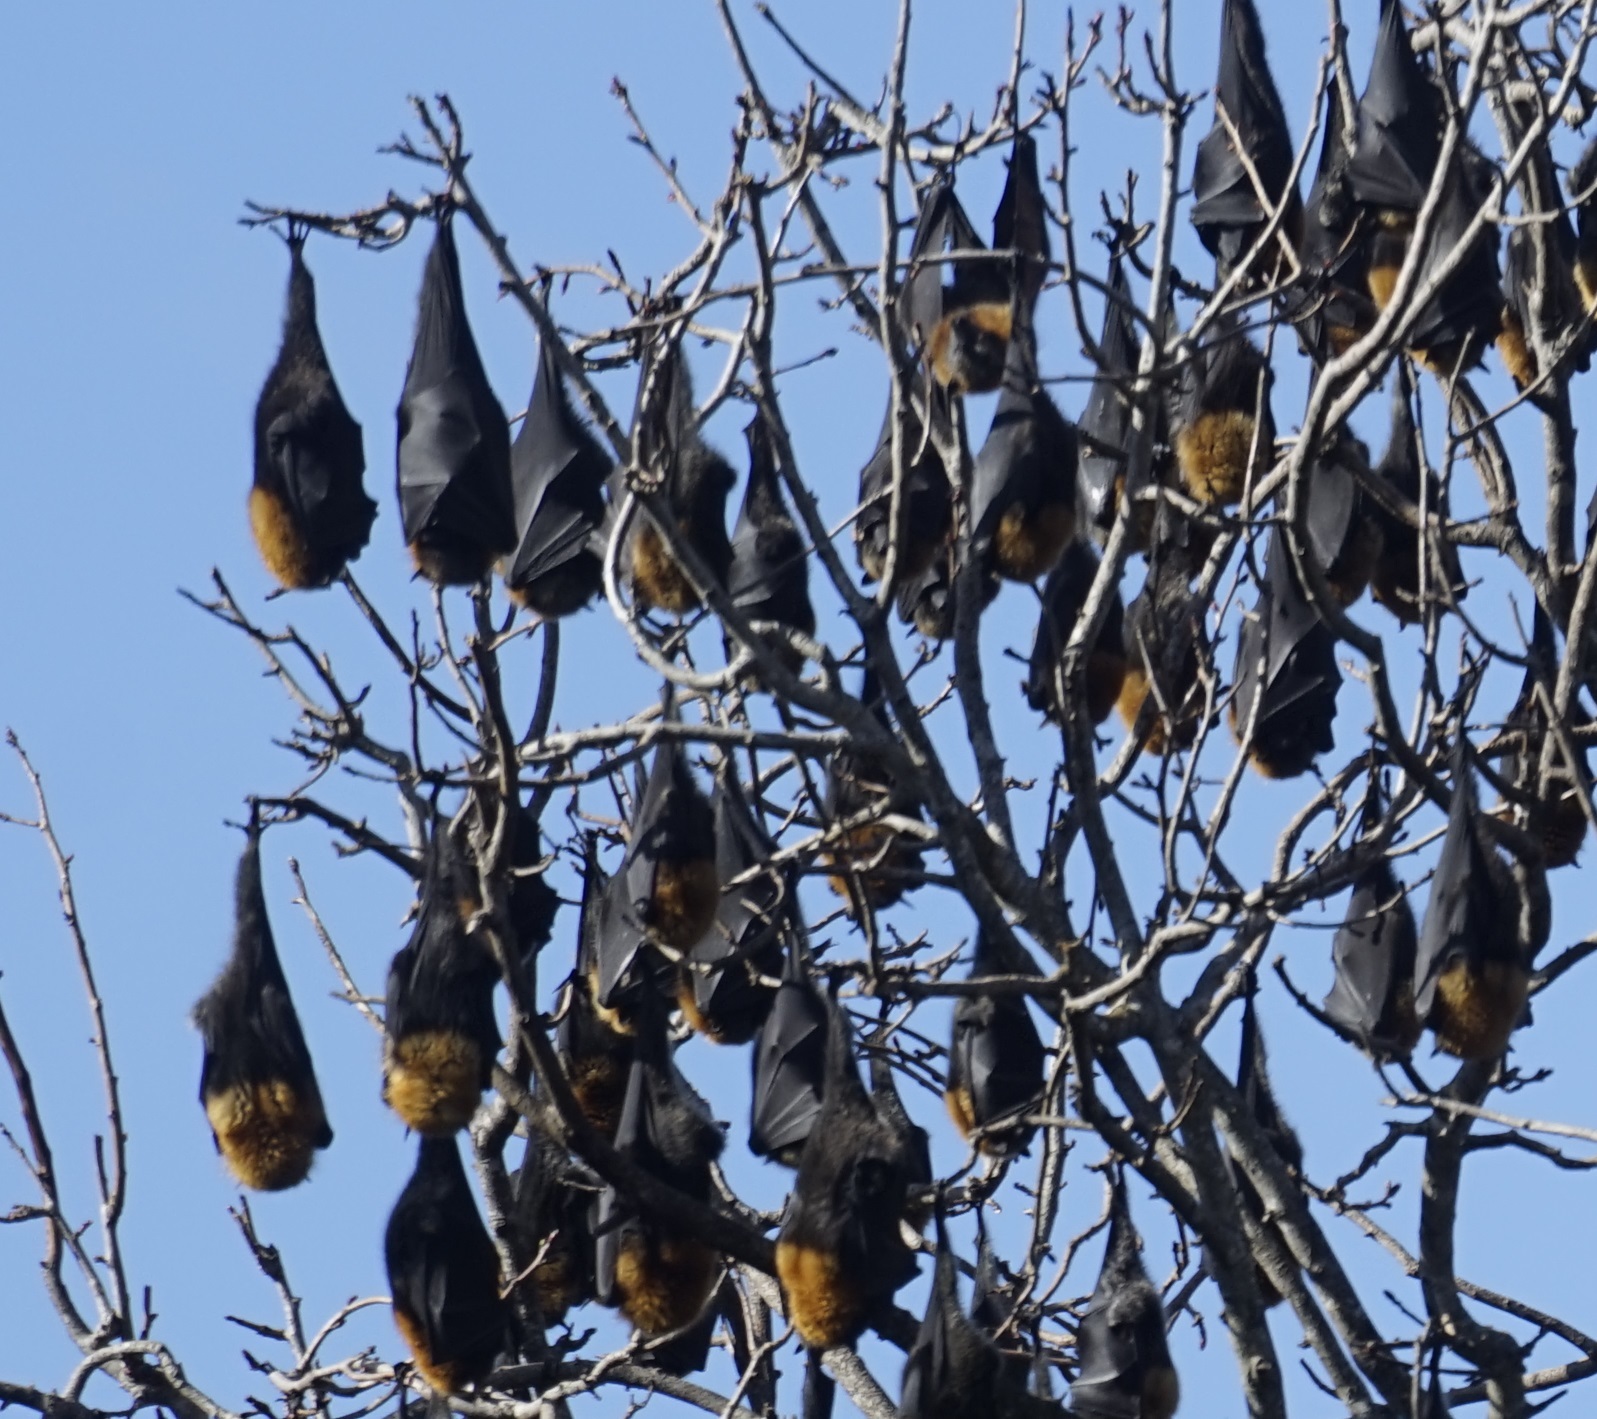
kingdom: Animalia
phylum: Chordata
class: Mammalia
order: Chiroptera
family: Pteropodidae
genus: Pteropus
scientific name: Pteropus poliocephalus
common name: Gray-headed flying fox
